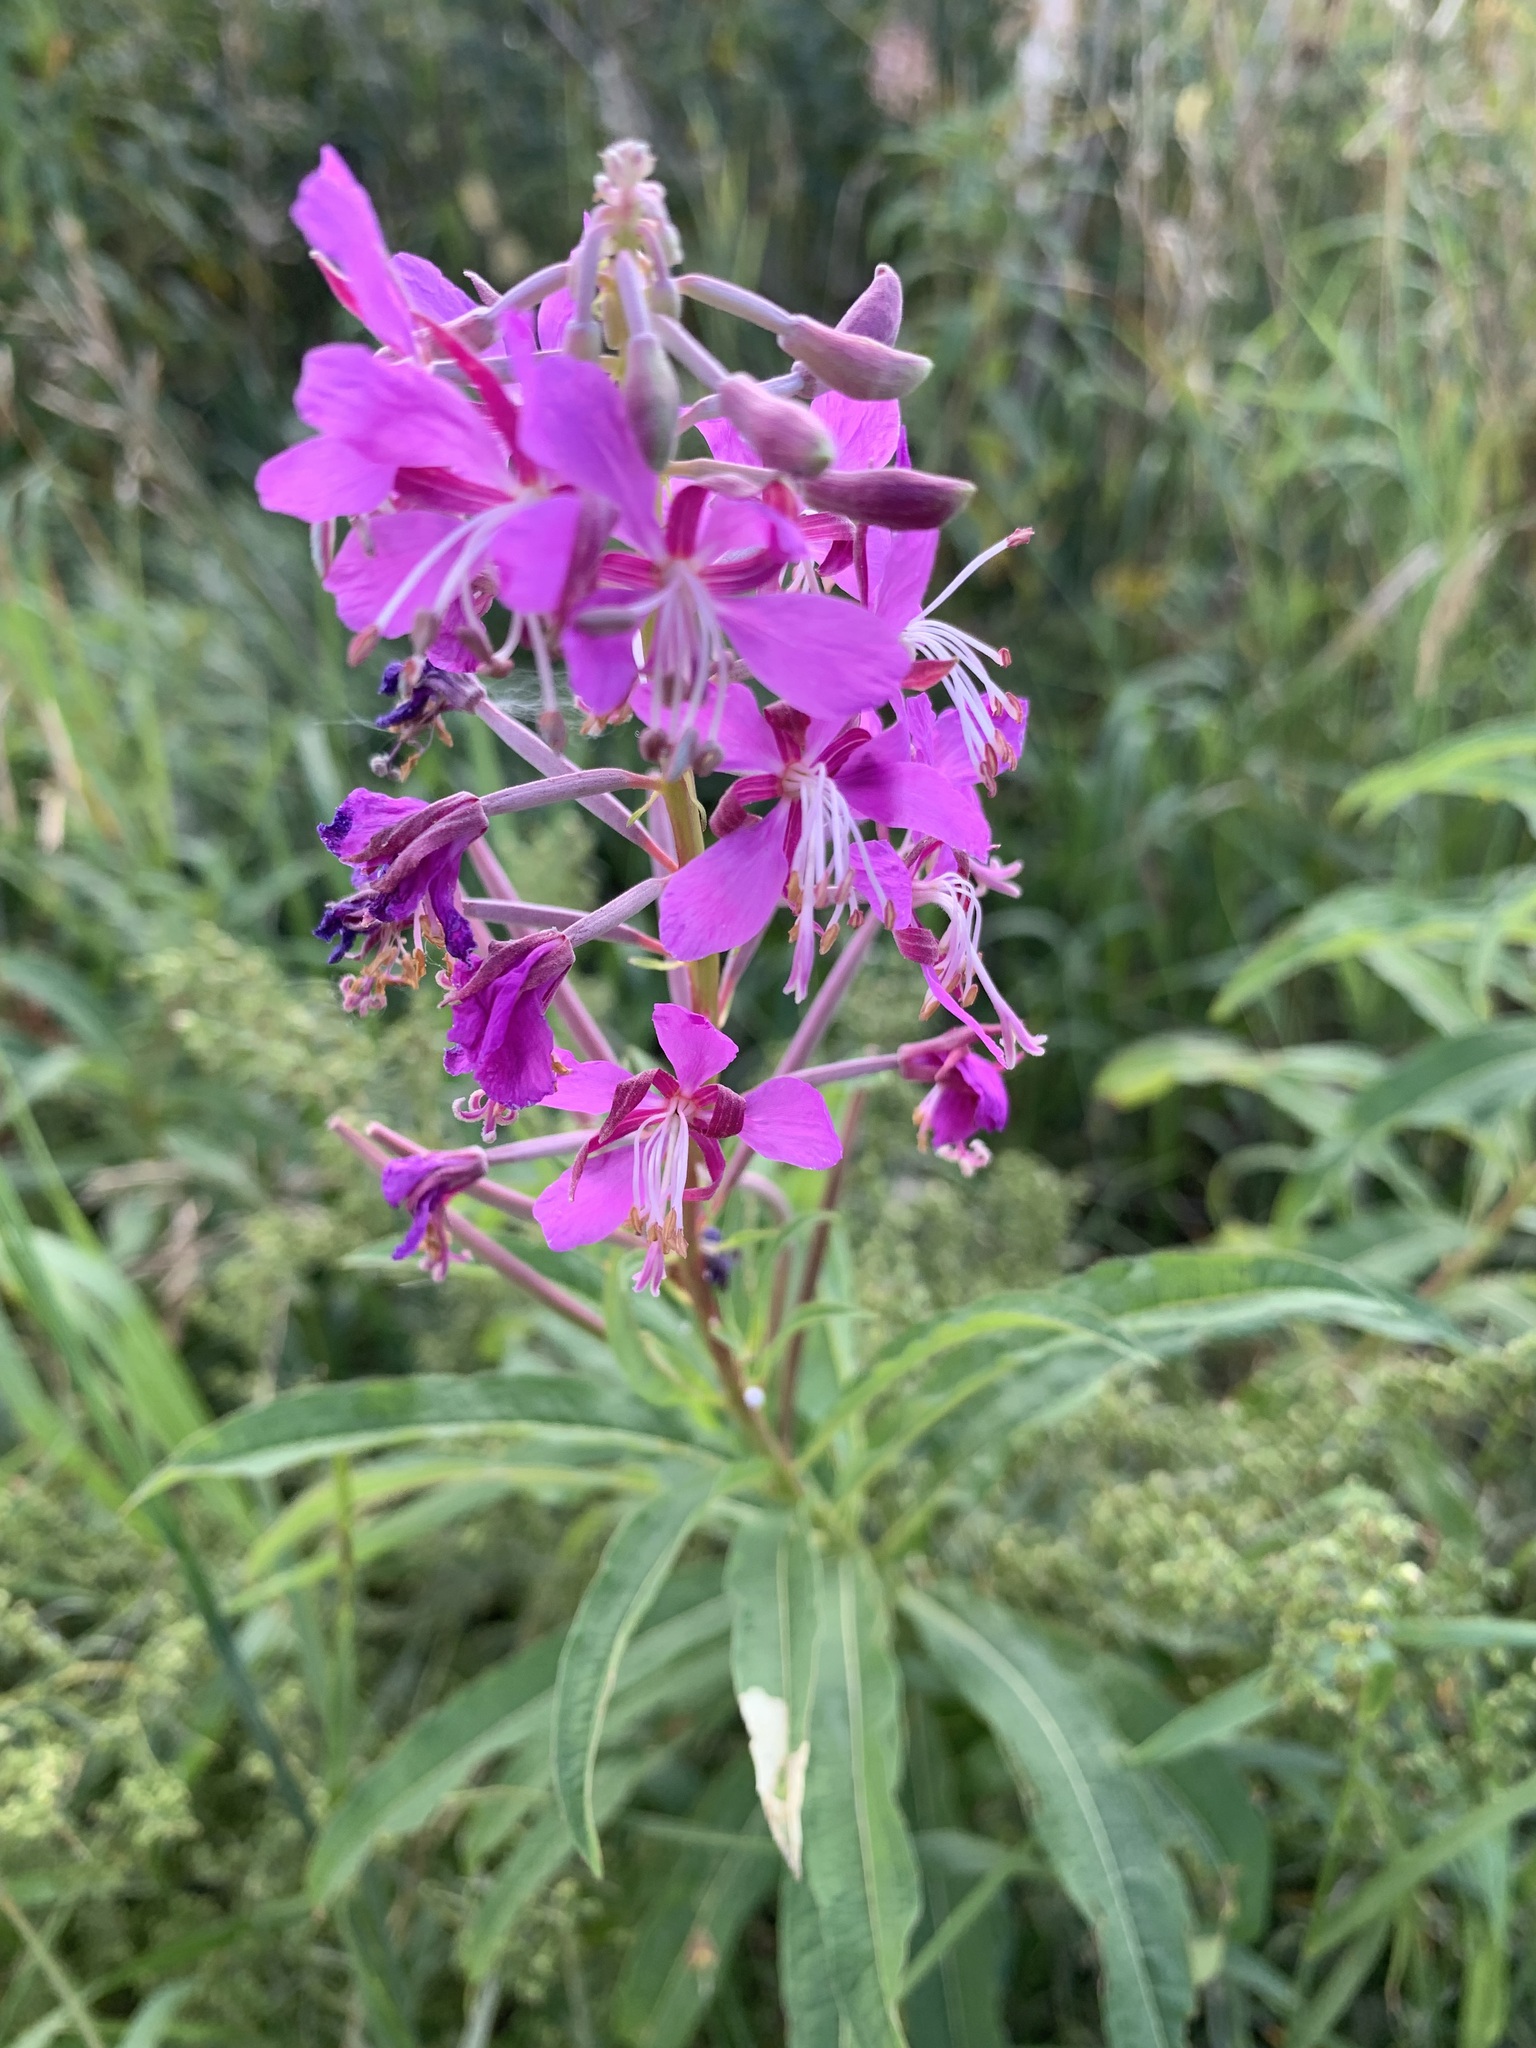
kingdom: Plantae
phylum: Tracheophyta
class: Magnoliopsida
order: Myrtales
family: Onagraceae
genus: Chamaenerion
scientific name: Chamaenerion angustifolium
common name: Fireweed
